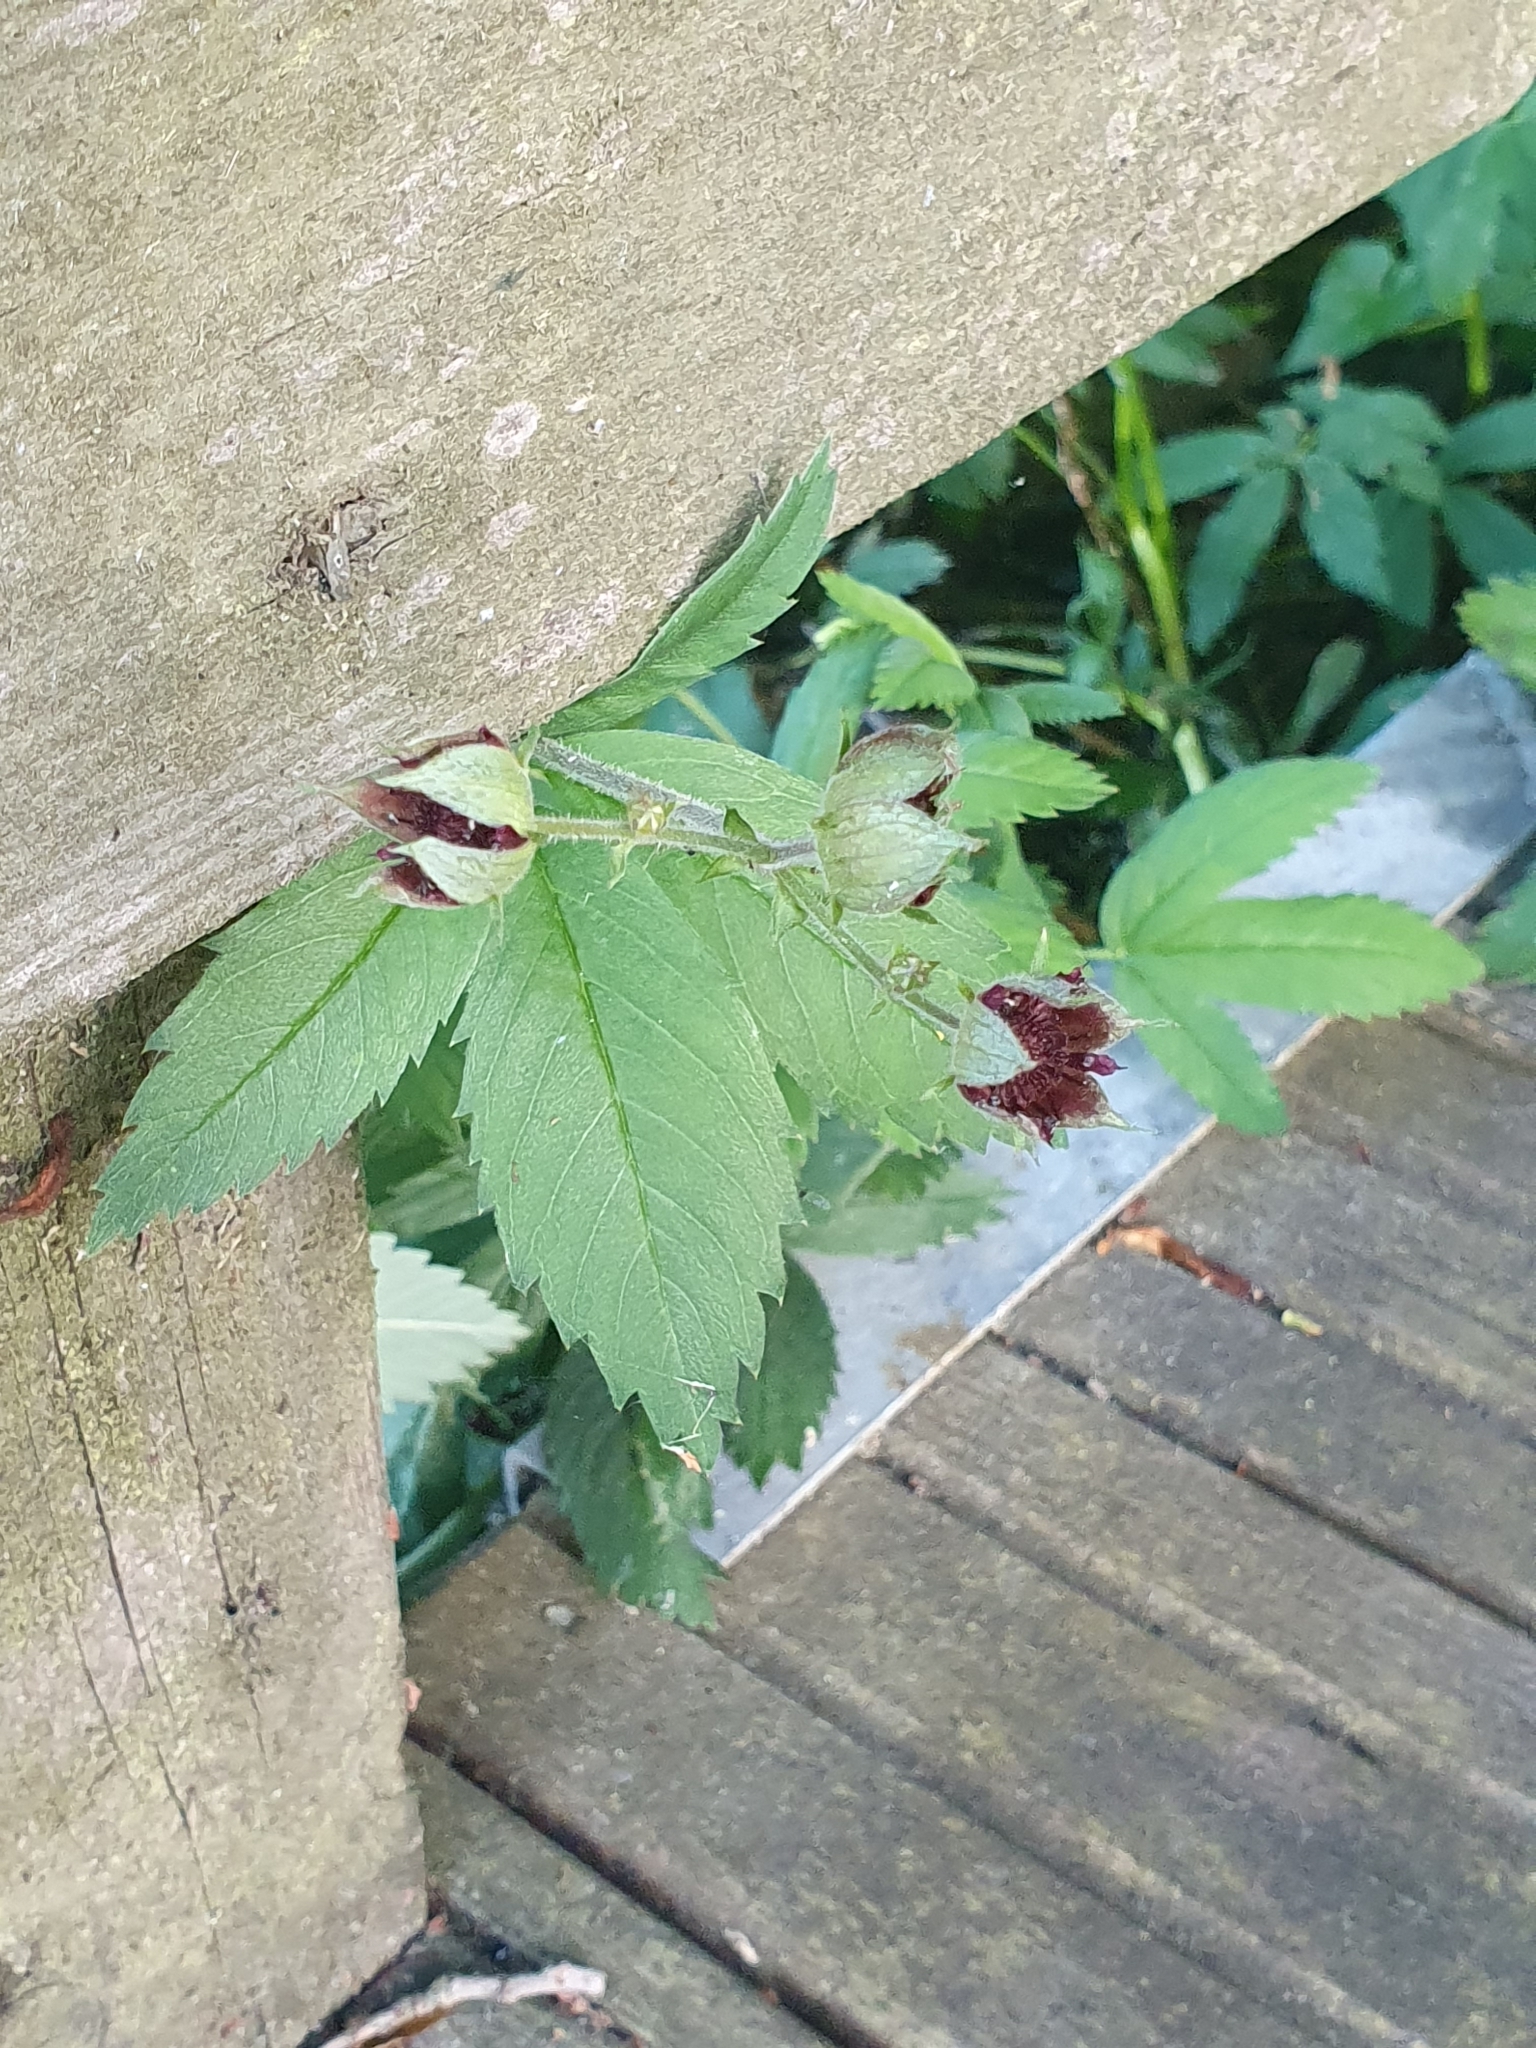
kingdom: Plantae
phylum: Tracheophyta
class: Magnoliopsida
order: Rosales
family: Rosaceae
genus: Comarum
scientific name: Comarum palustre
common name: Marsh cinquefoil
